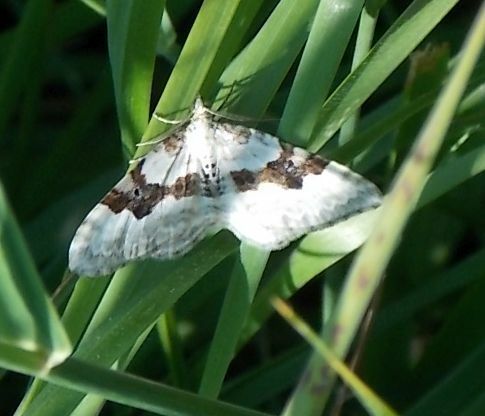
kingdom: Animalia
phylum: Arthropoda
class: Insecta
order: Lepidoptera
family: Geometridae
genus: Xanthorhoe
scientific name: Xanthorhoe montanata
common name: Silver-ground carpet
